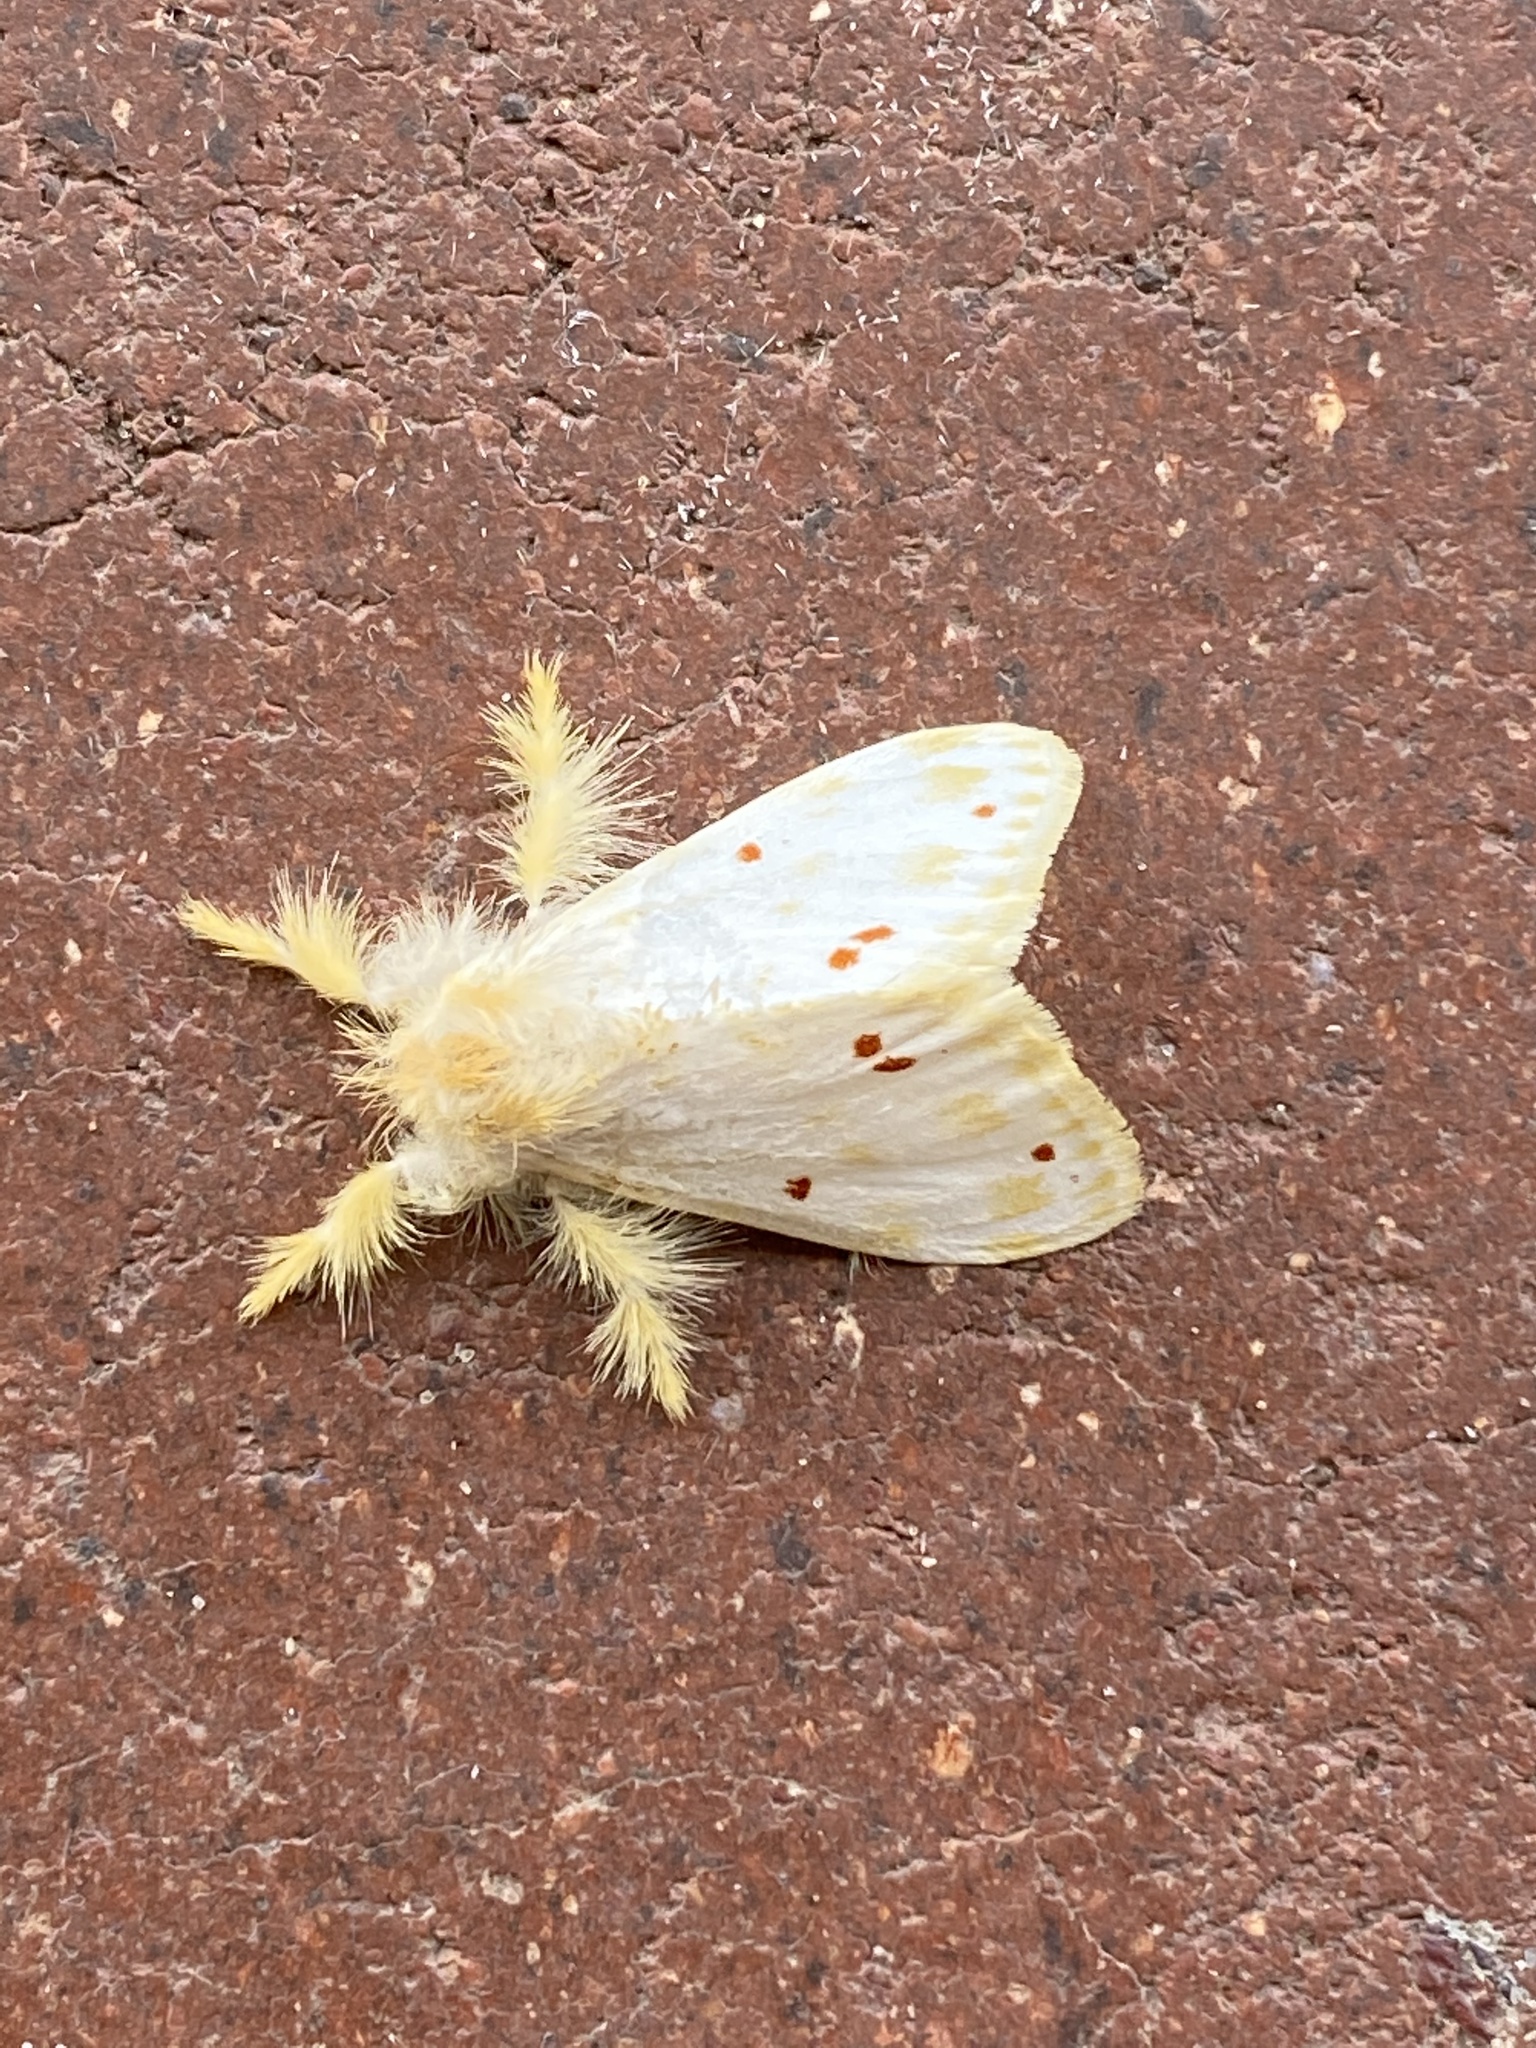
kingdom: Animalia
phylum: Arthropoda
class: Insecta
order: Lepidoptera
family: Erebidae
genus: Euproctis
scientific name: Euproctis rufopunctata
